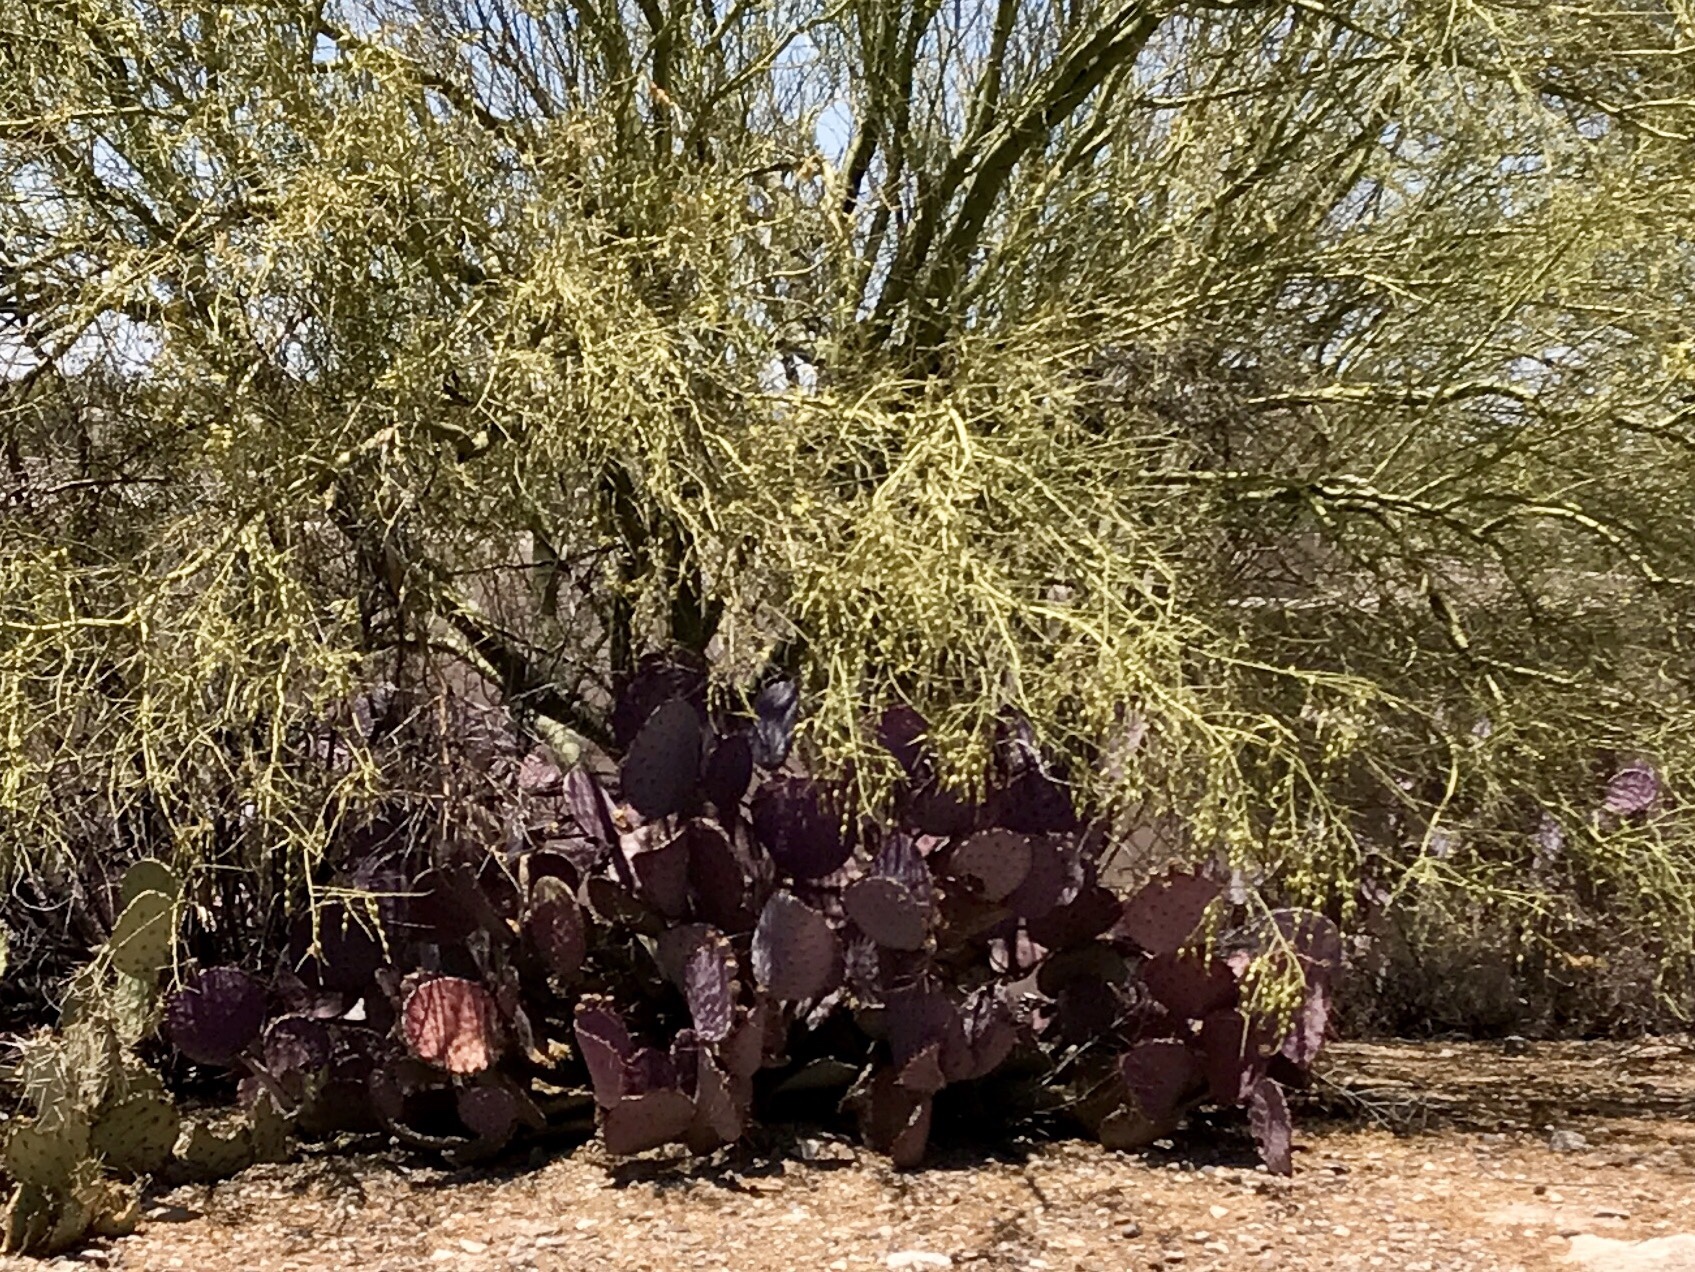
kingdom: Plantae
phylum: Tracheophyta
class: Magnoliopsida
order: Caryophyllales
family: Cactaceae
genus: Opuntia
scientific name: Opuntia gosseliniana
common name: Violet prickly-pear
